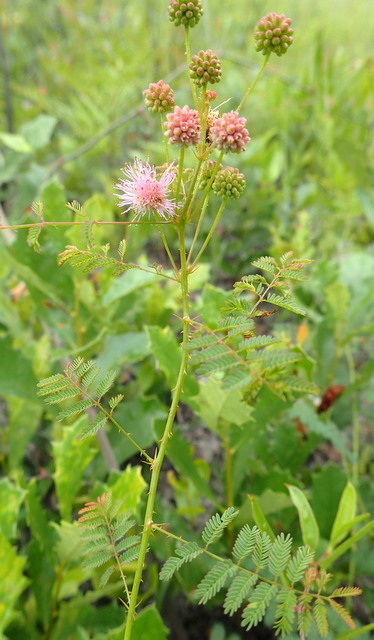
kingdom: Plantae
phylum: Tracheophyta
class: Magnoliopsida
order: Fabales
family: Fabaceae
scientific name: Fabaceae
